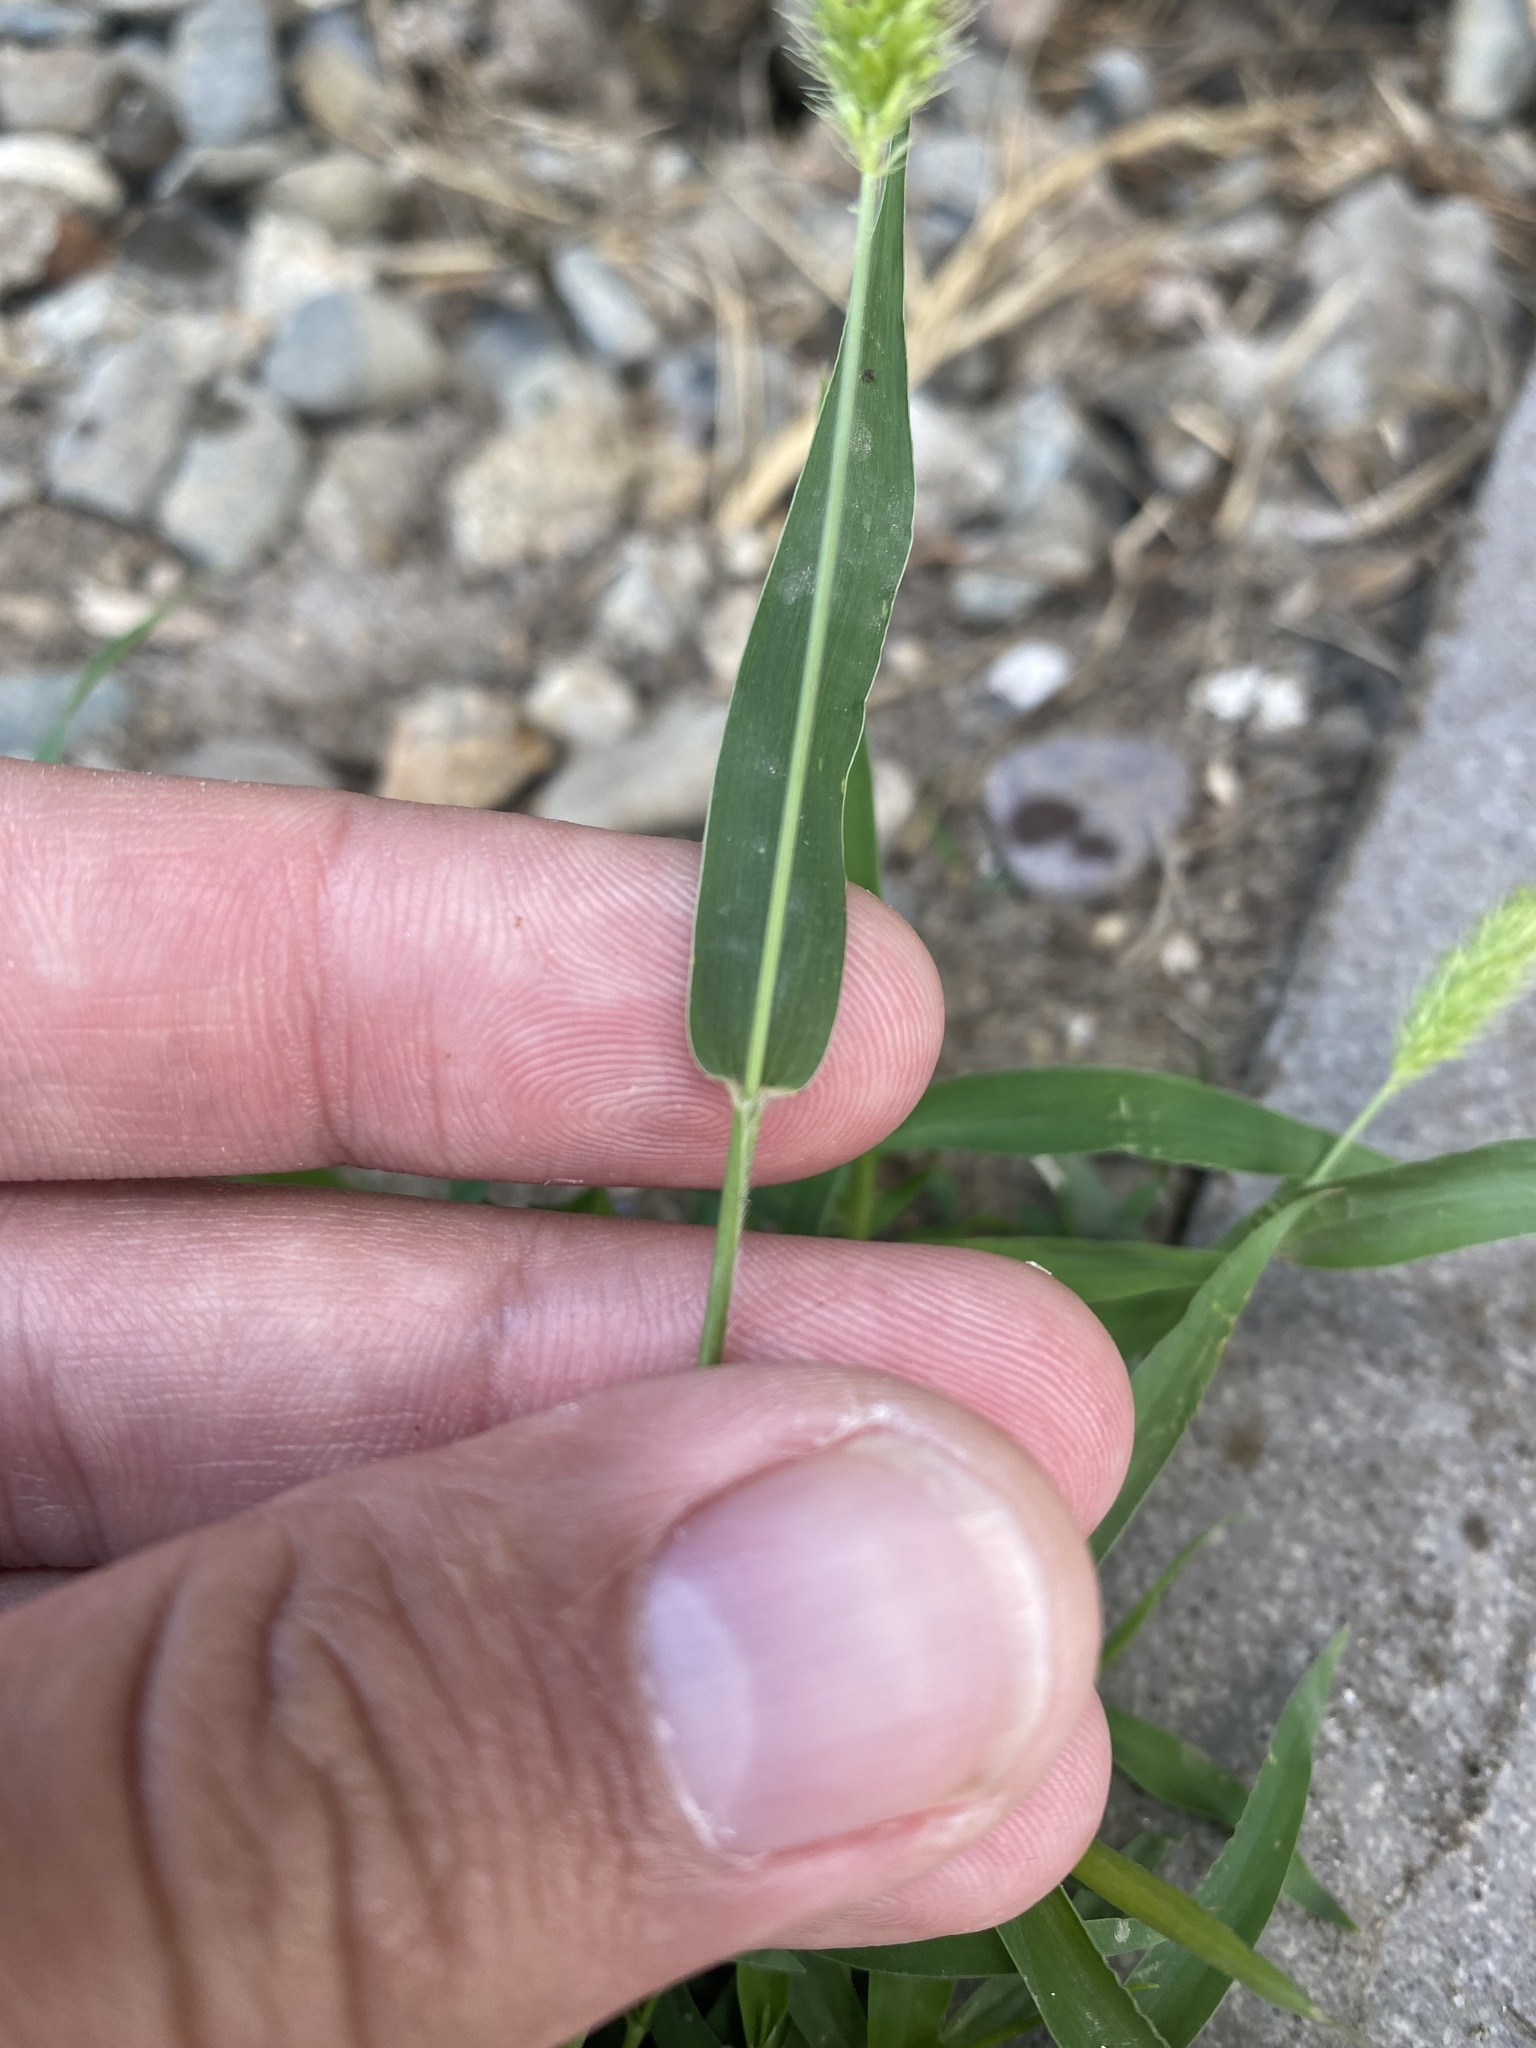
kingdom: Plantae
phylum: Tracheophyta
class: Liliopsida
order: Poales
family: Poaceae
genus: Setaria
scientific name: Setaria viridis
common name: Green bristlegrass
